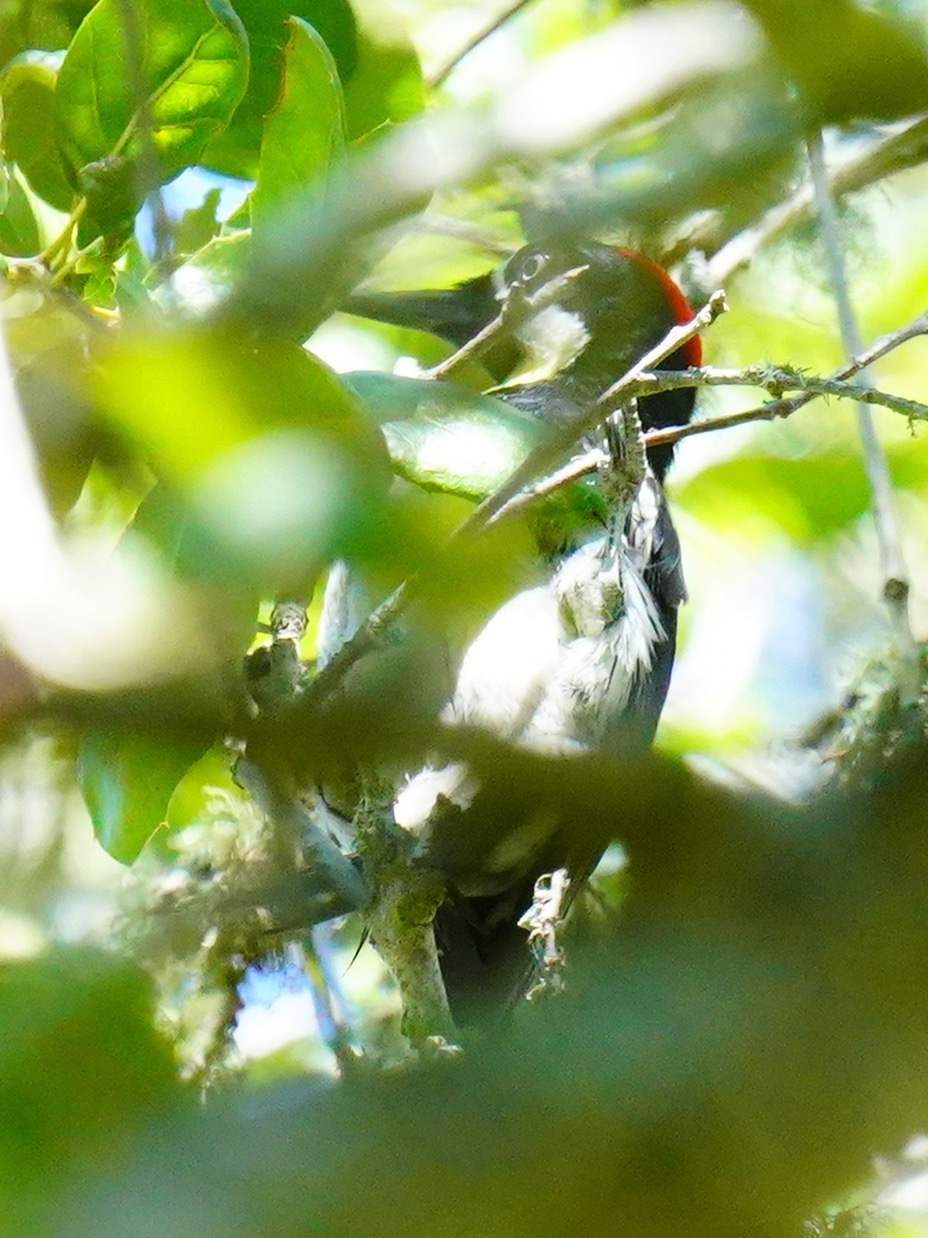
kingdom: Animalia
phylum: Chordata
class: Aves
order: Piciformes
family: Picidae
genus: Melanerpes
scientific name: Melanerpes formicivorus
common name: Acorn woodpecker
